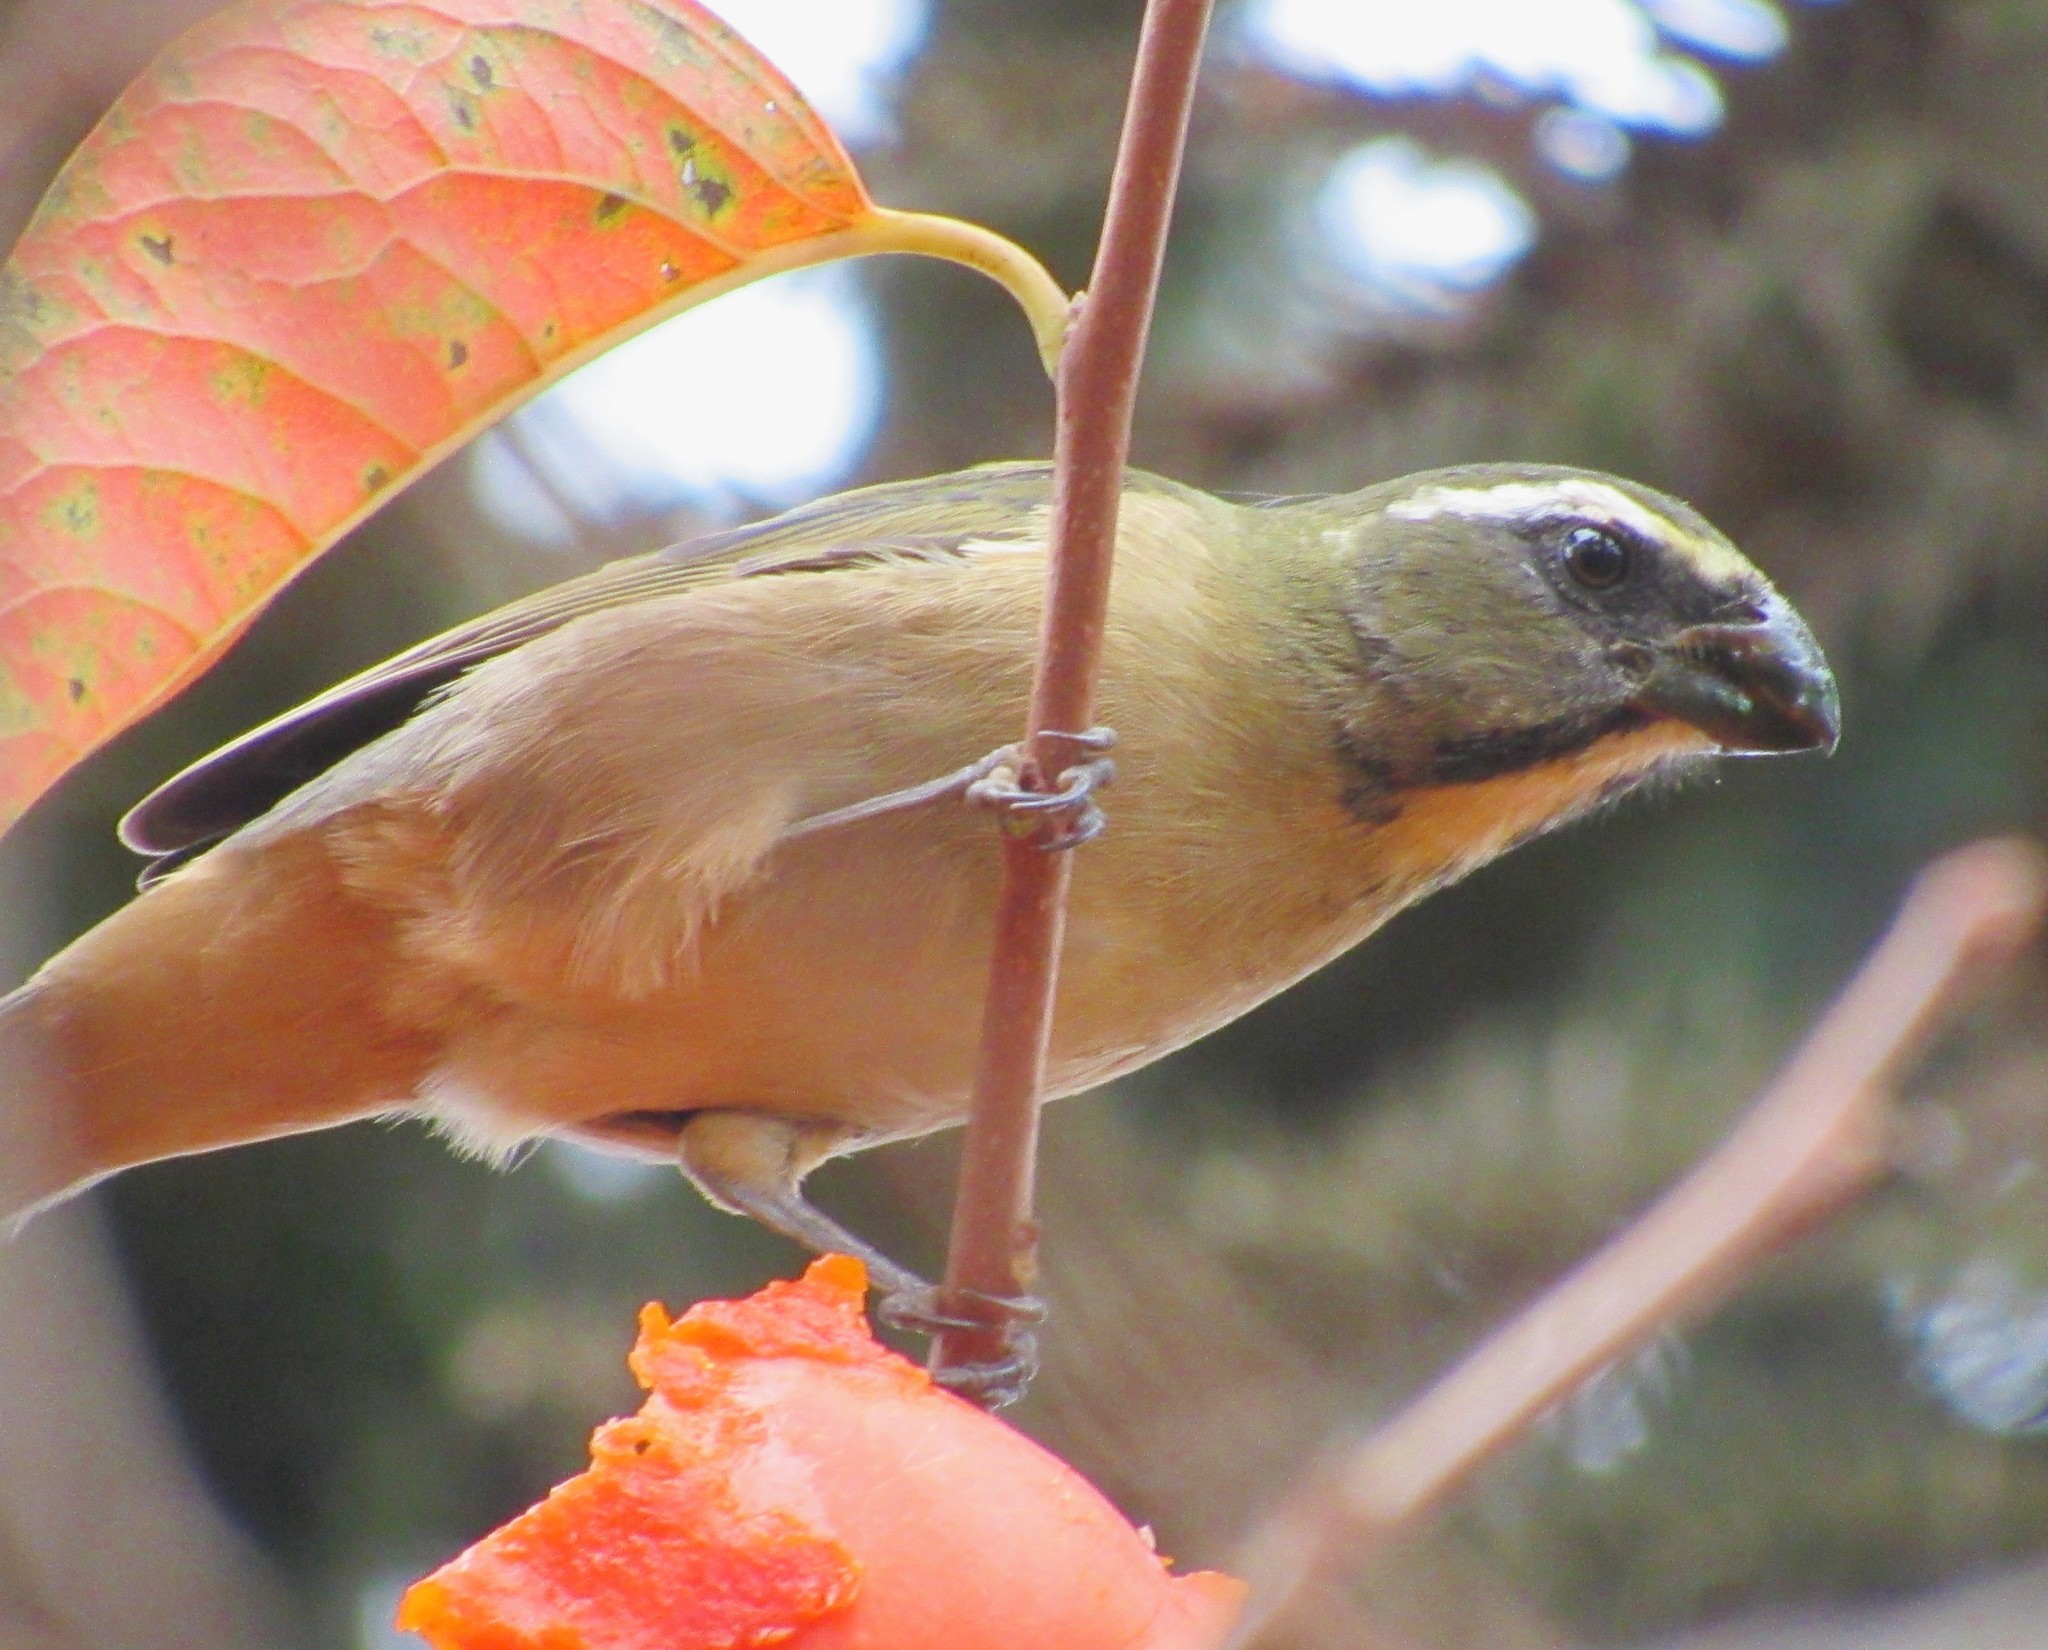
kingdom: Animalia
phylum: Chordata
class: Aves
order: Passeriformes
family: Thraupidae
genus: Saltator
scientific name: Saltator maxillosus
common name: Thick-billed saltator
